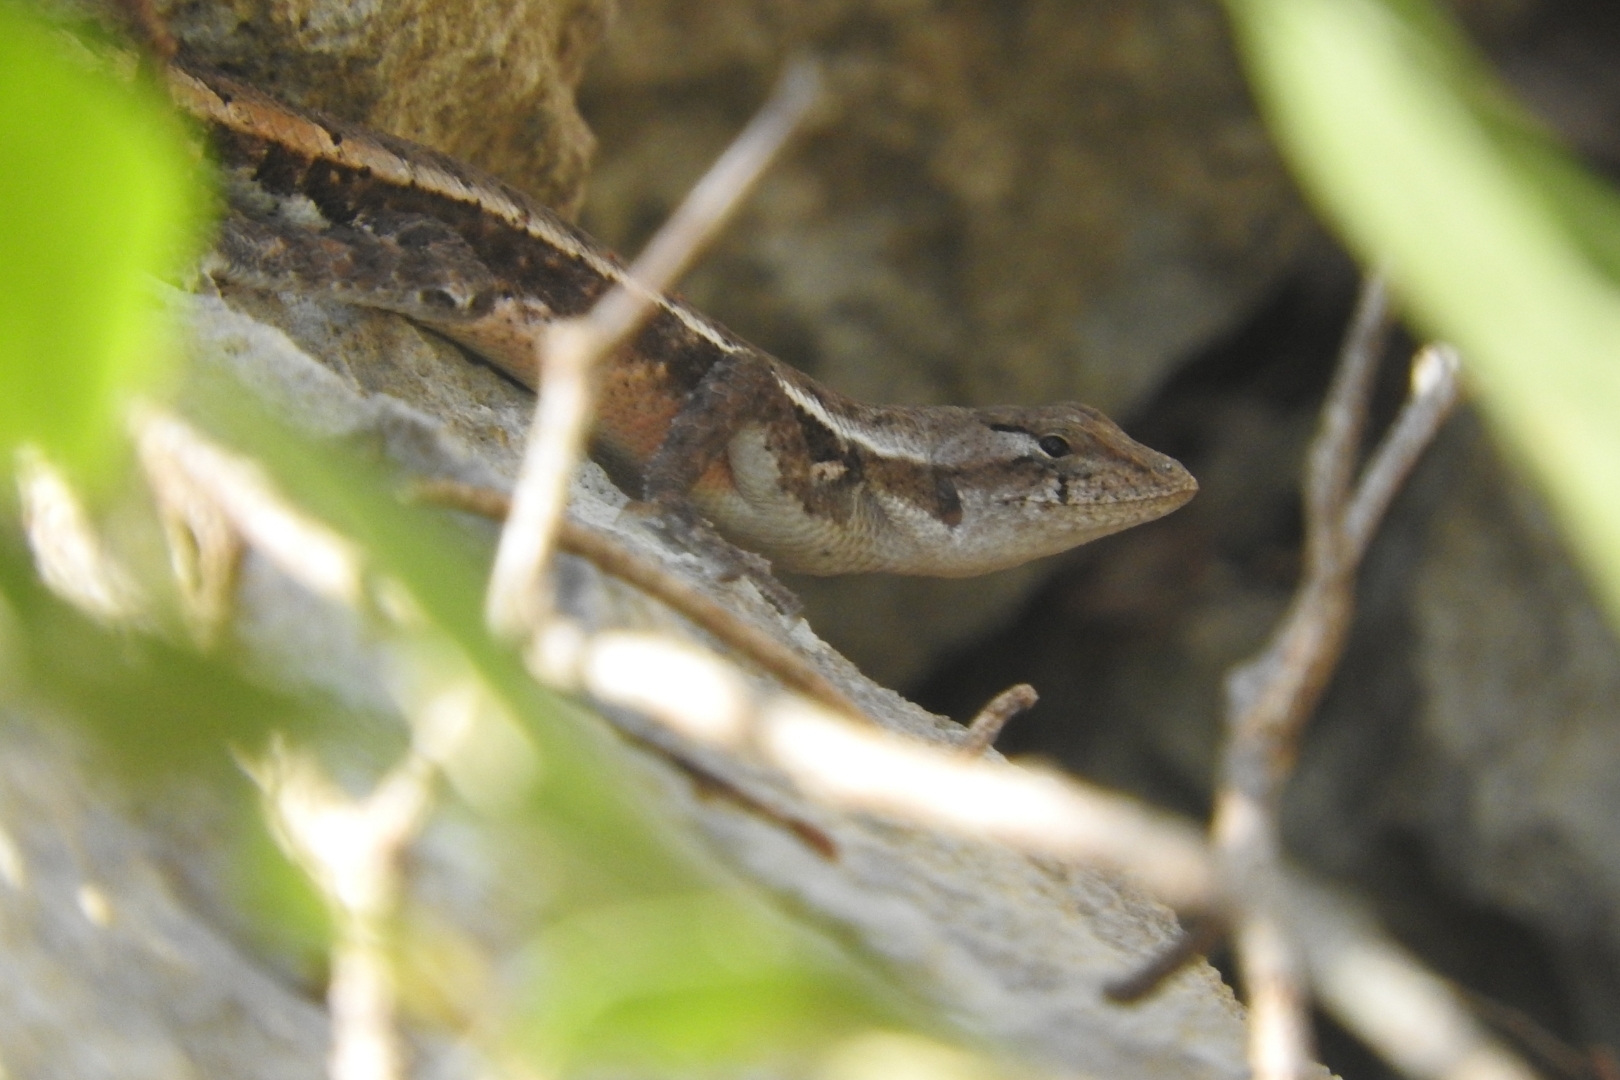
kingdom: Animalia
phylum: Chordata
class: Squamata
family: Phrynosomatidae
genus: Sceloporus
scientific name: Sceloporus chrysostictus
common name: Yellow-spotted spiny lizard
